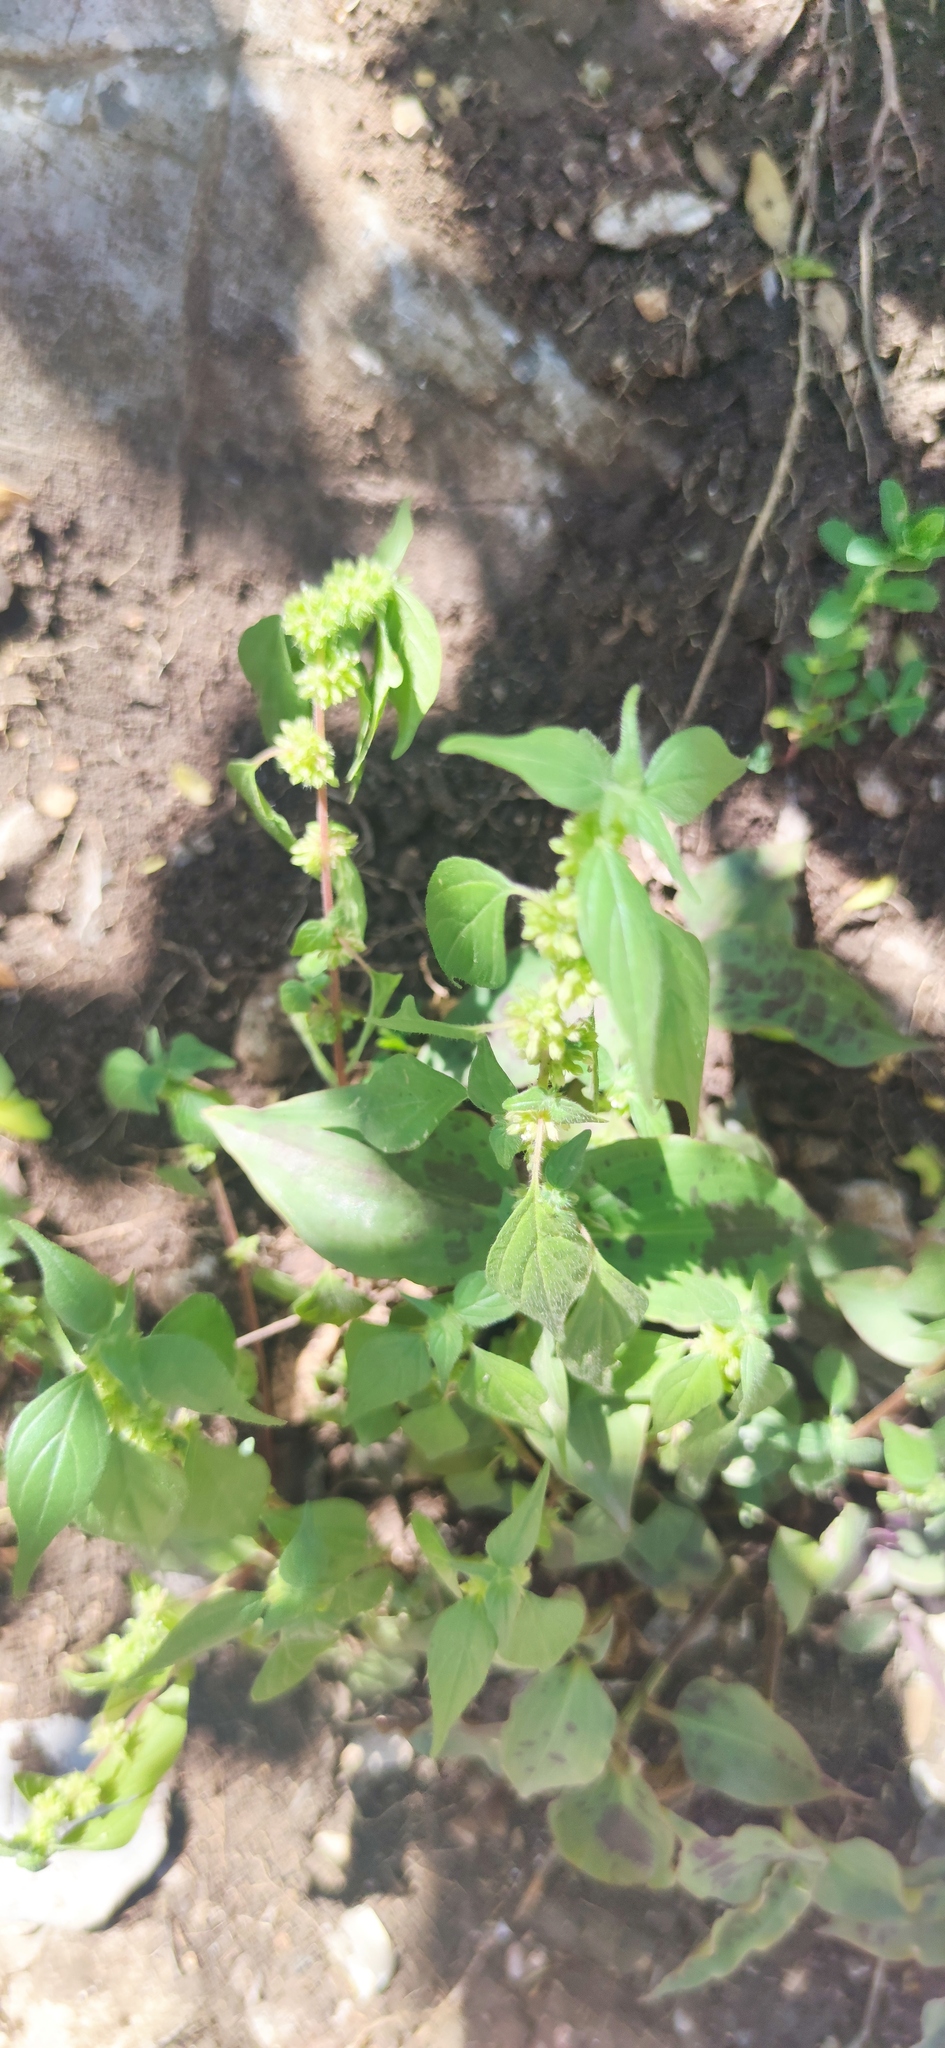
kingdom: Plantae
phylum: Tracheophyta
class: Magnoliopsida
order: Rosales
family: Urticaceae
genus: Parietaria
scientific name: Parietaria officinalis
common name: Eastern pellitory-of-the-wall
